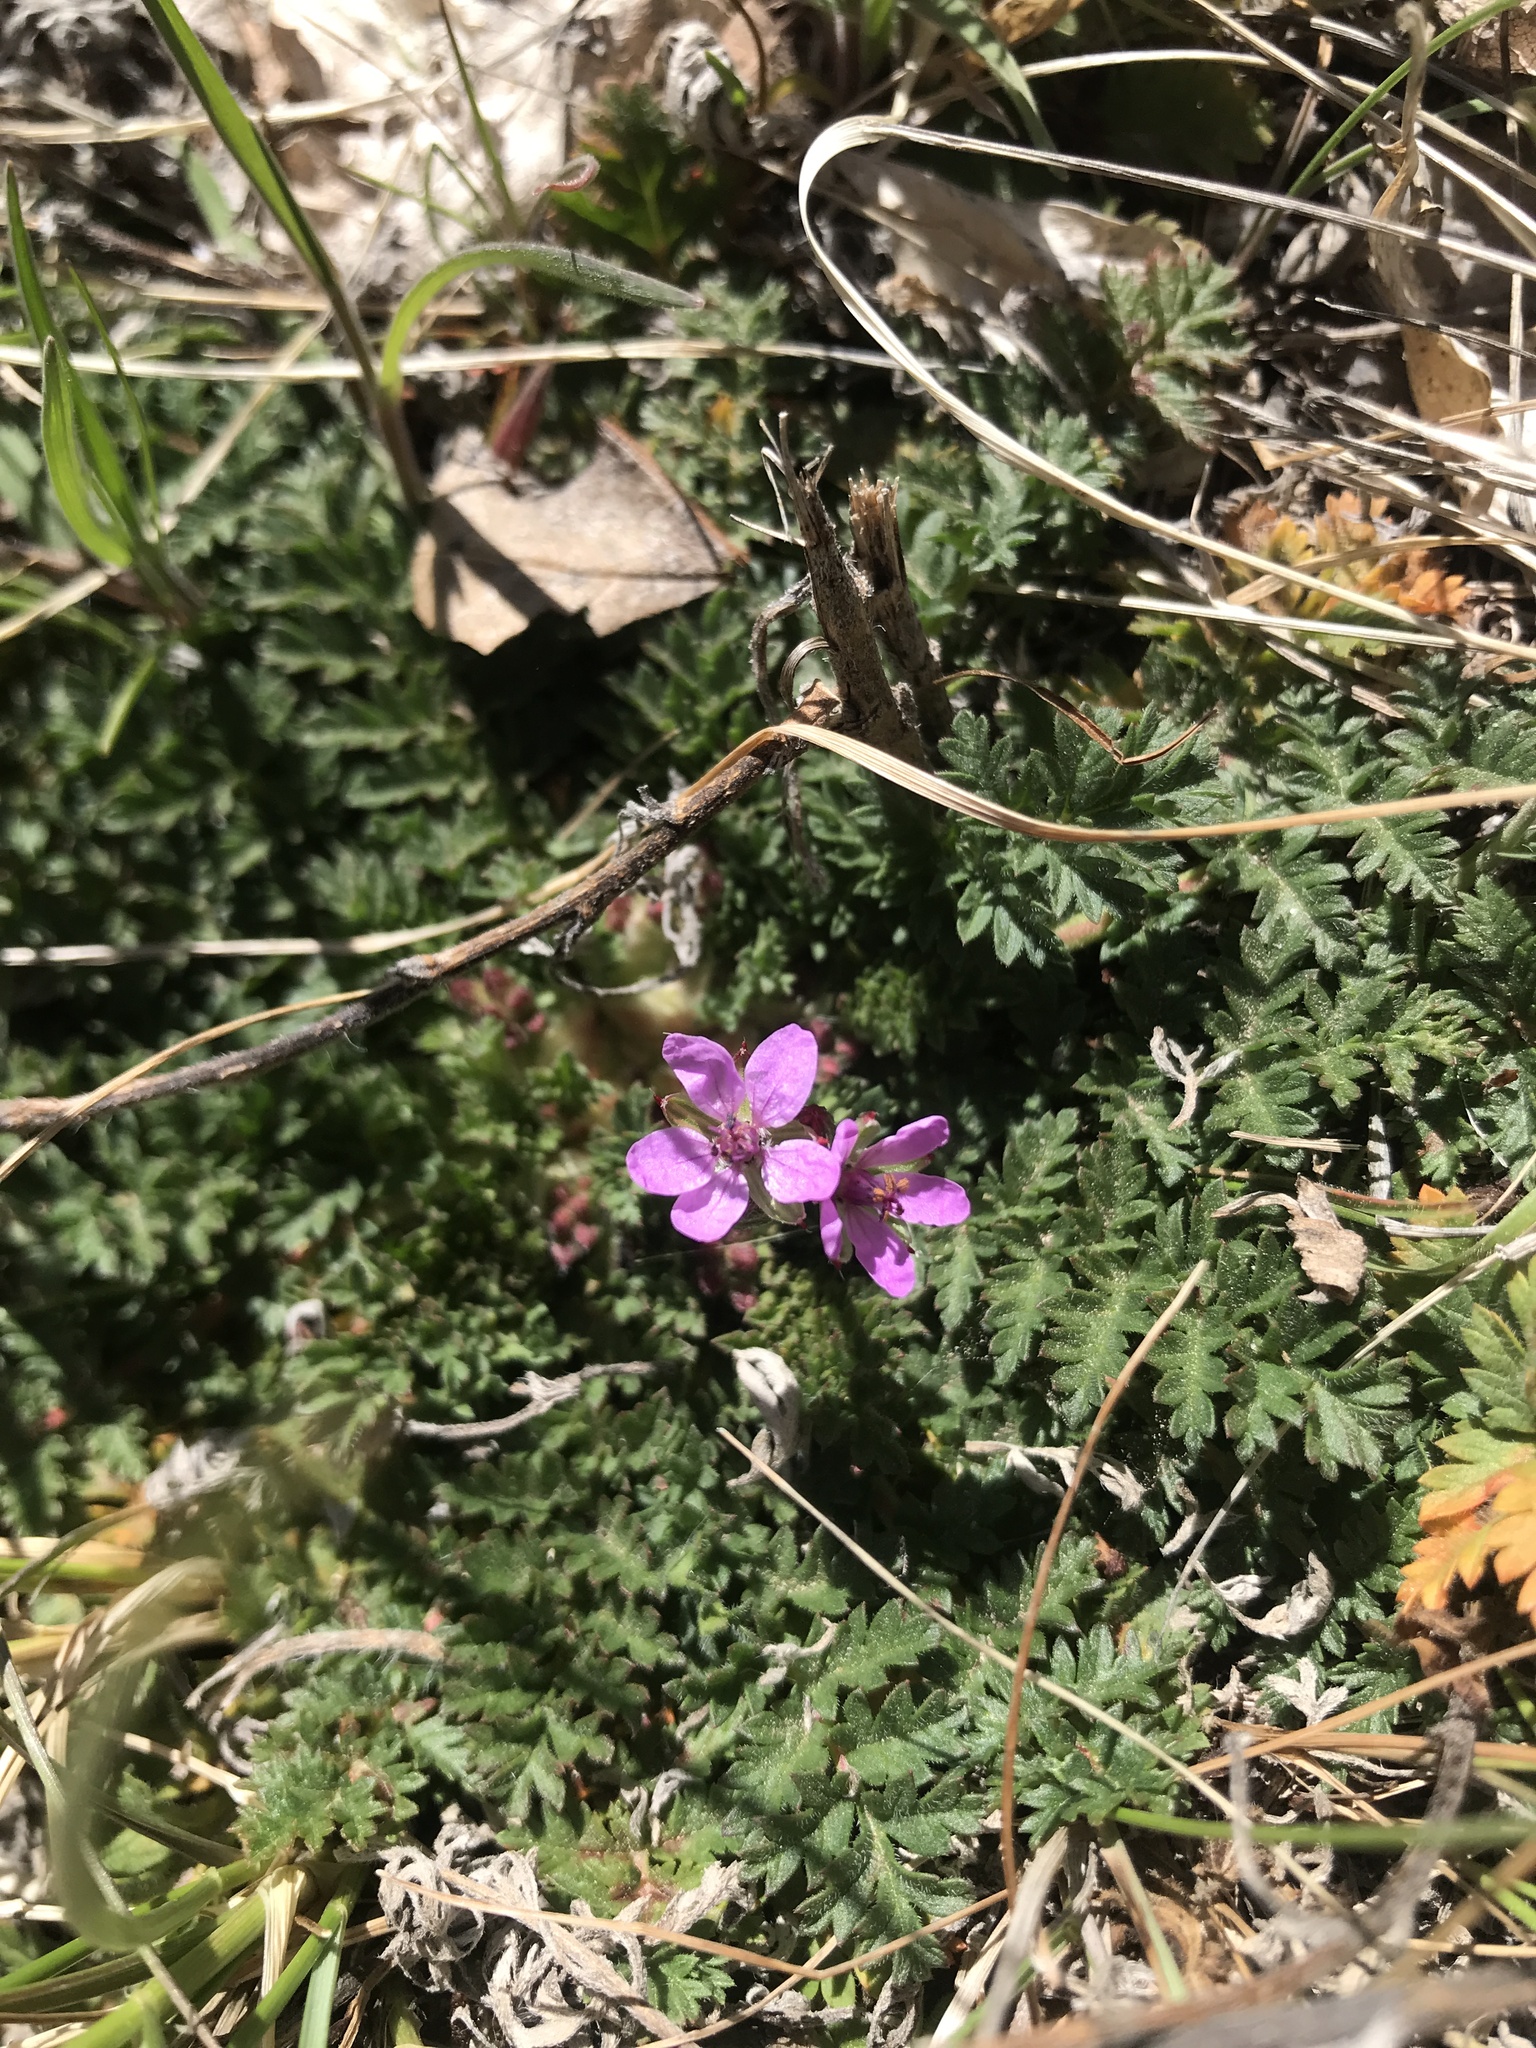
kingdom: Plantae
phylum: Tracheophyta
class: Magnoliopsida
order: Geraniales
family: Geraniaceae
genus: Erodium
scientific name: Erodium cicutarium
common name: Common stork's-bill
